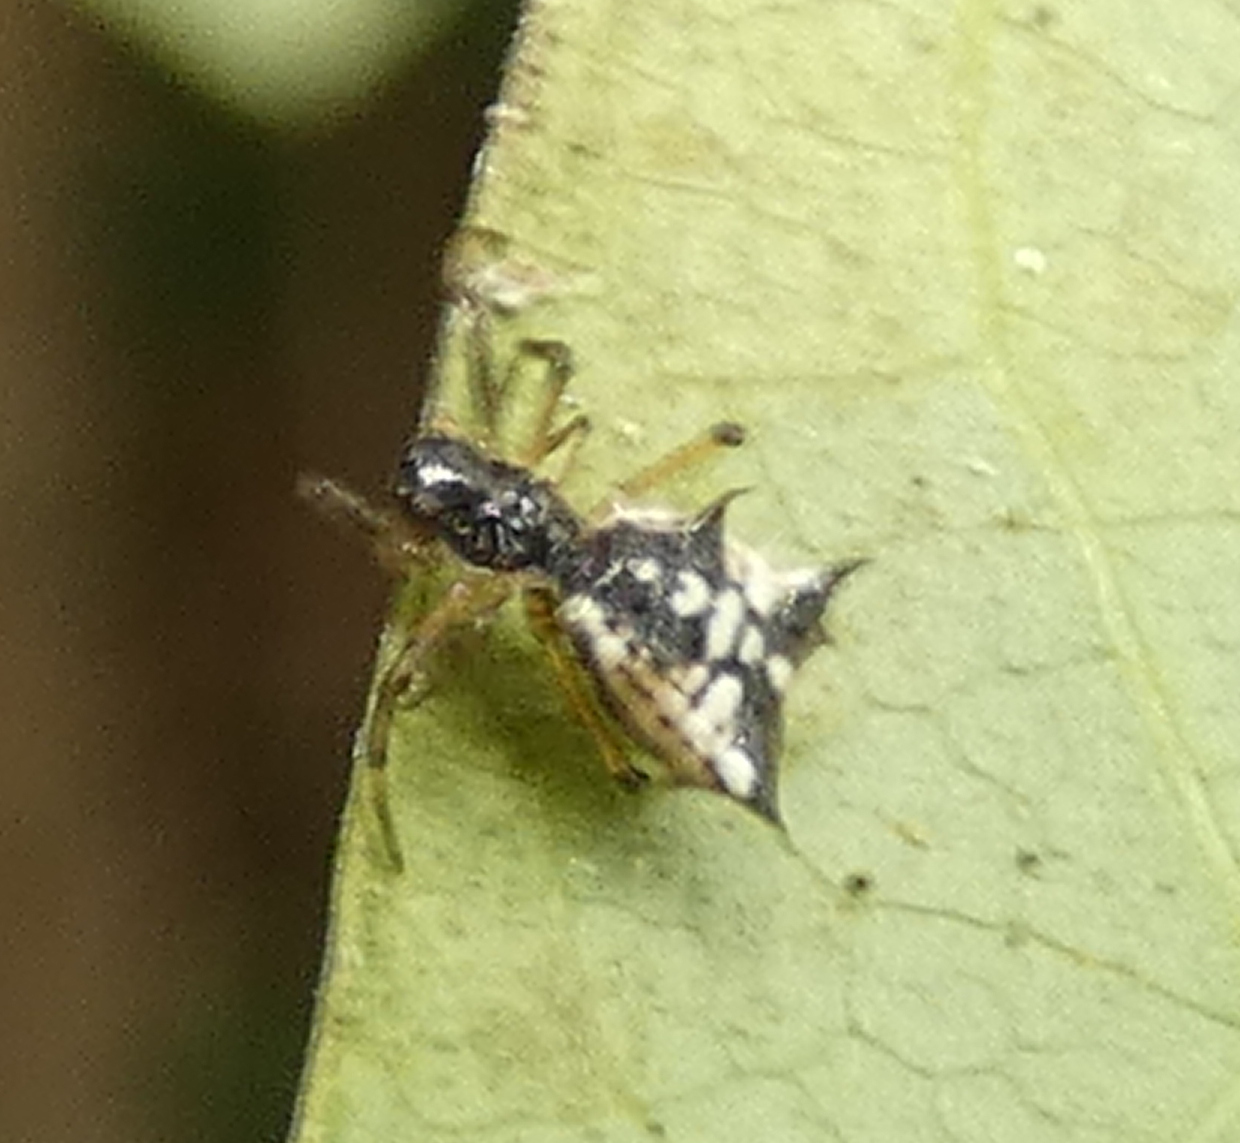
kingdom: Animalia
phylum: Arthropoda
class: Arachnida
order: Araneae
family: Araneidae
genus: Micrathena
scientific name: Micrathena picta
